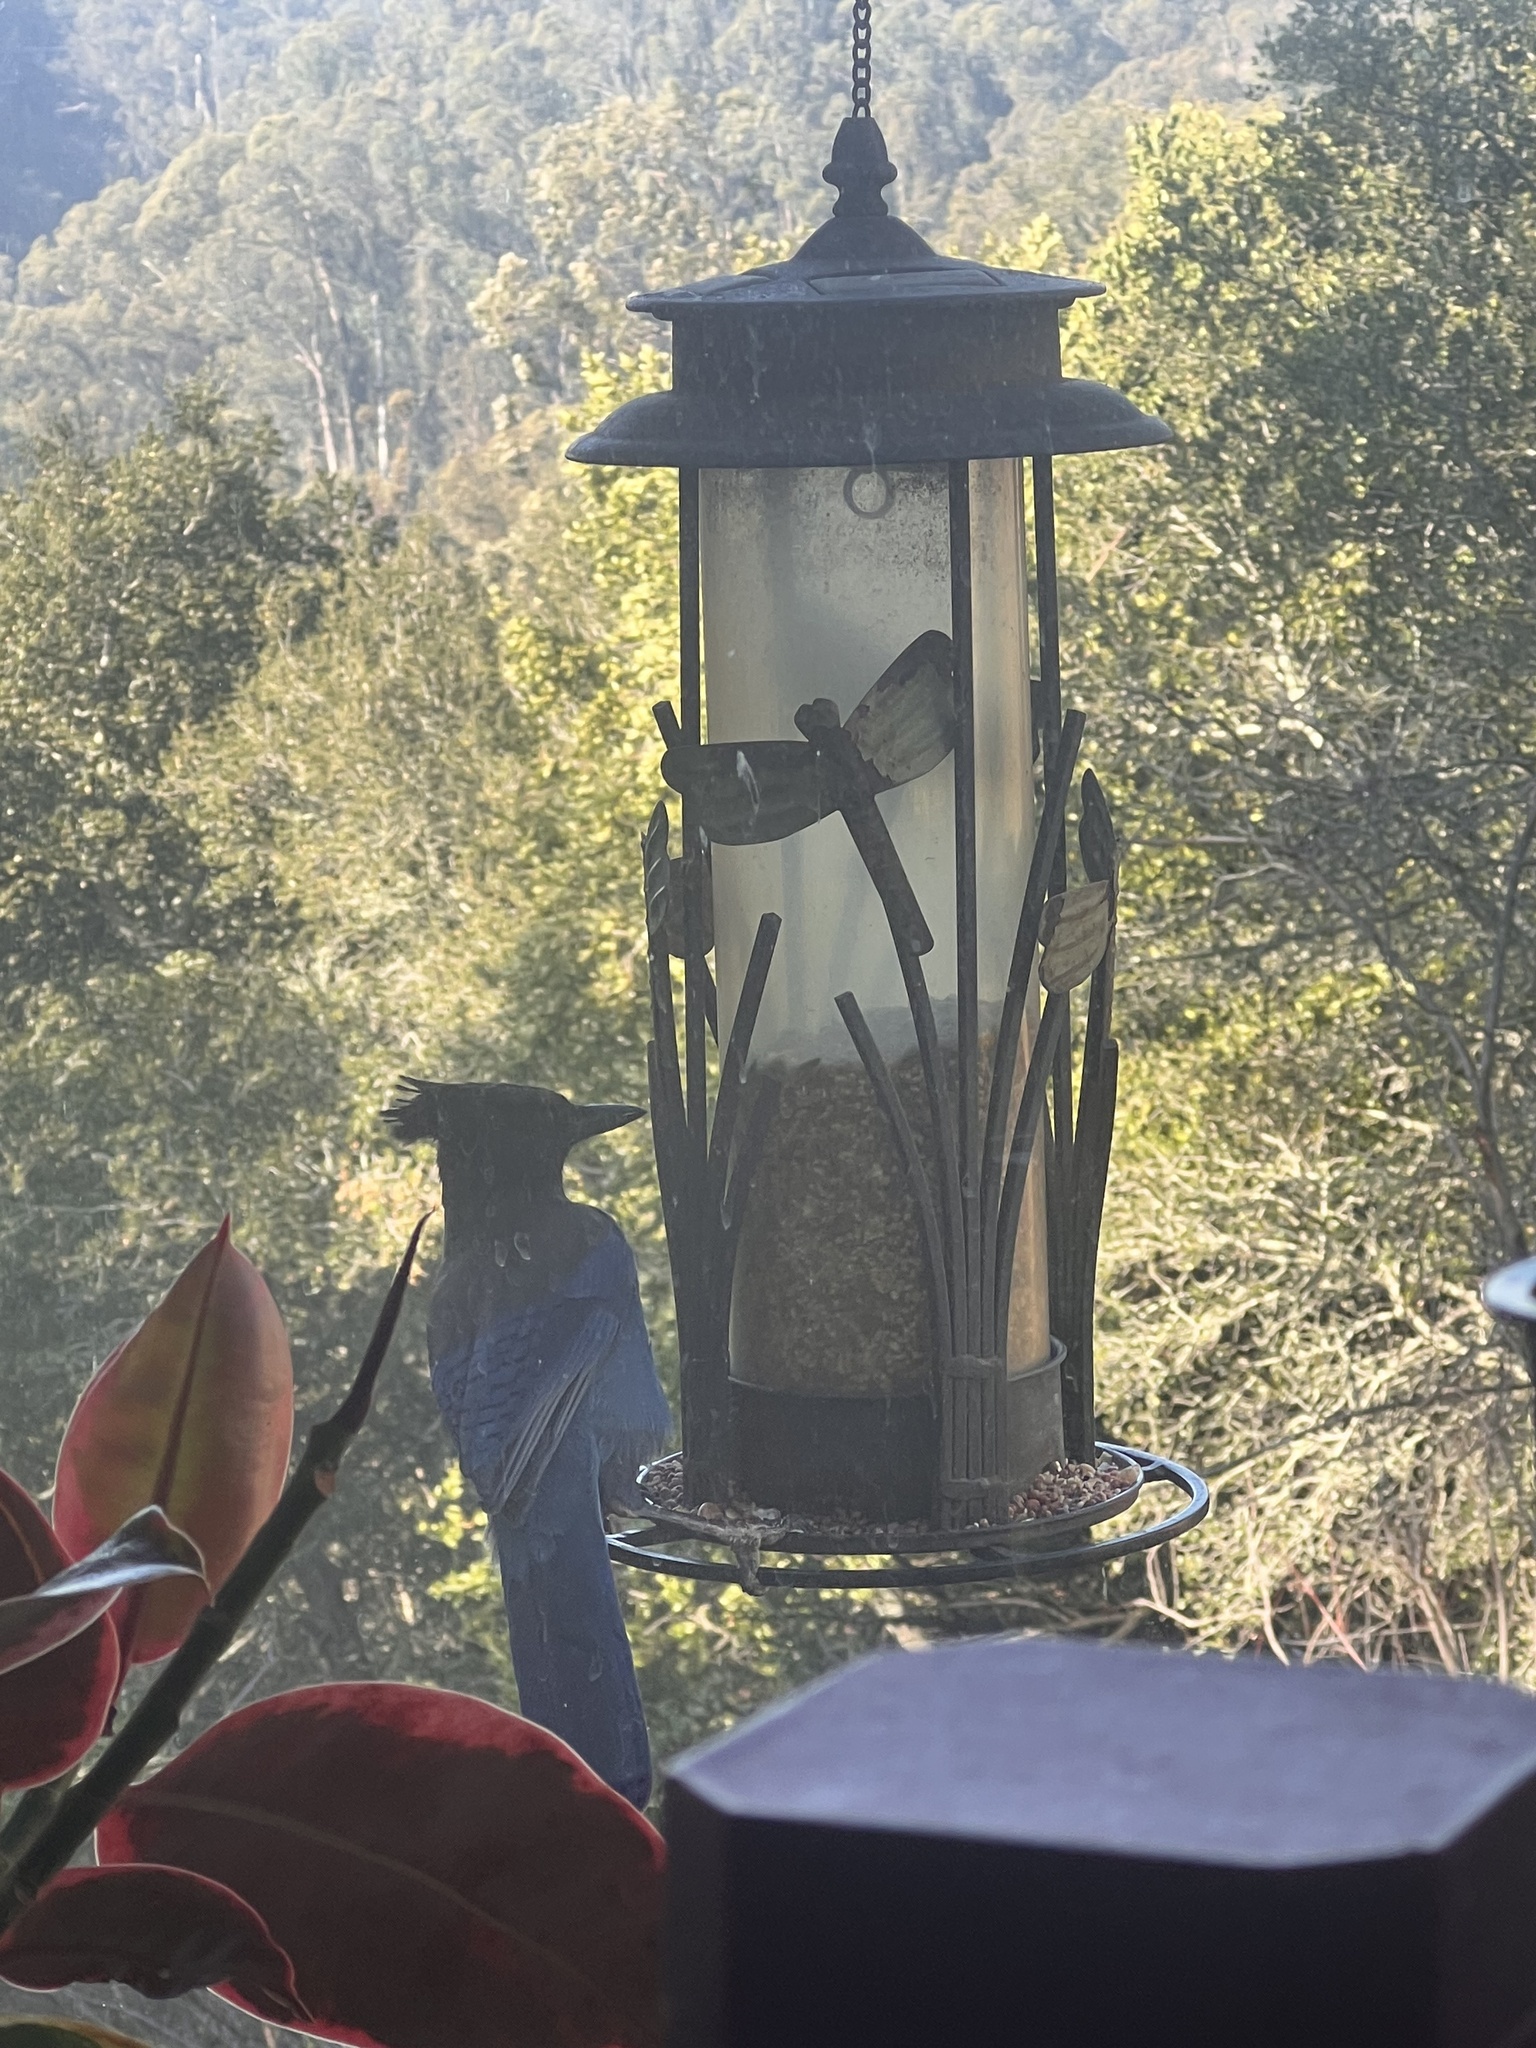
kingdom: Animalia
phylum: Chordata
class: Aves
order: Passeriformes
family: Corvidae
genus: Cyanocitta
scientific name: Cyanocitta stelleri
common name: Steller's jay
